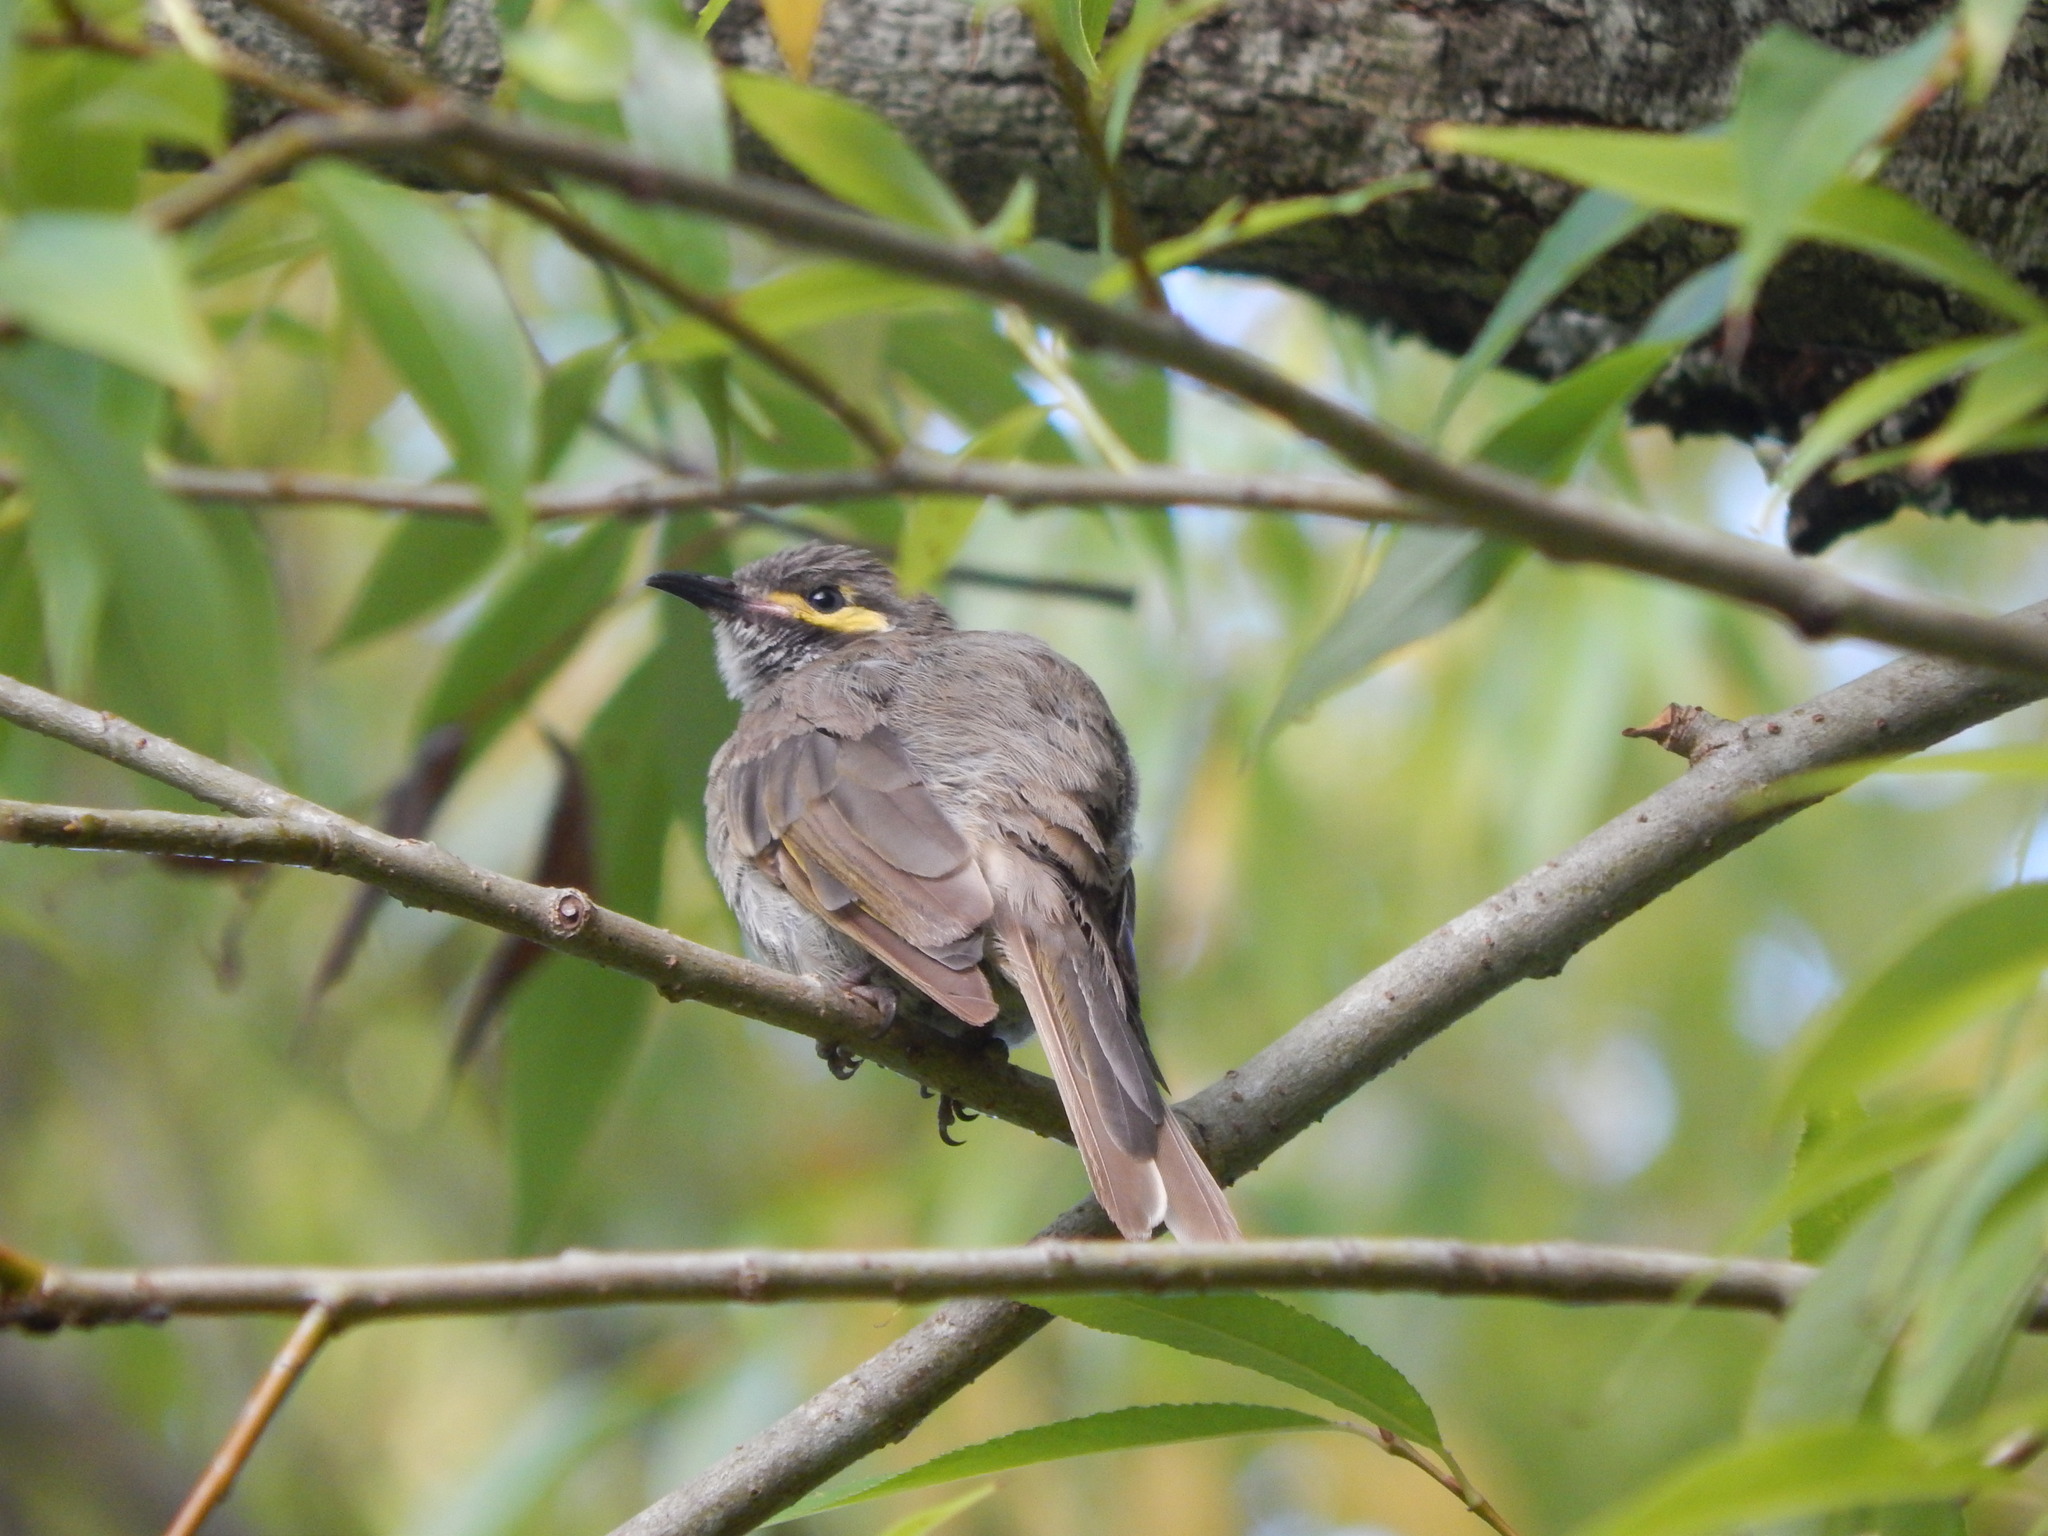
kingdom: Animalia
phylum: Chordata
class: Aves
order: Passeriformes
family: Meliphagidae
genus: Caligavis
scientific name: Caligavis chrysops
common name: Yellow-faced honeyeater
